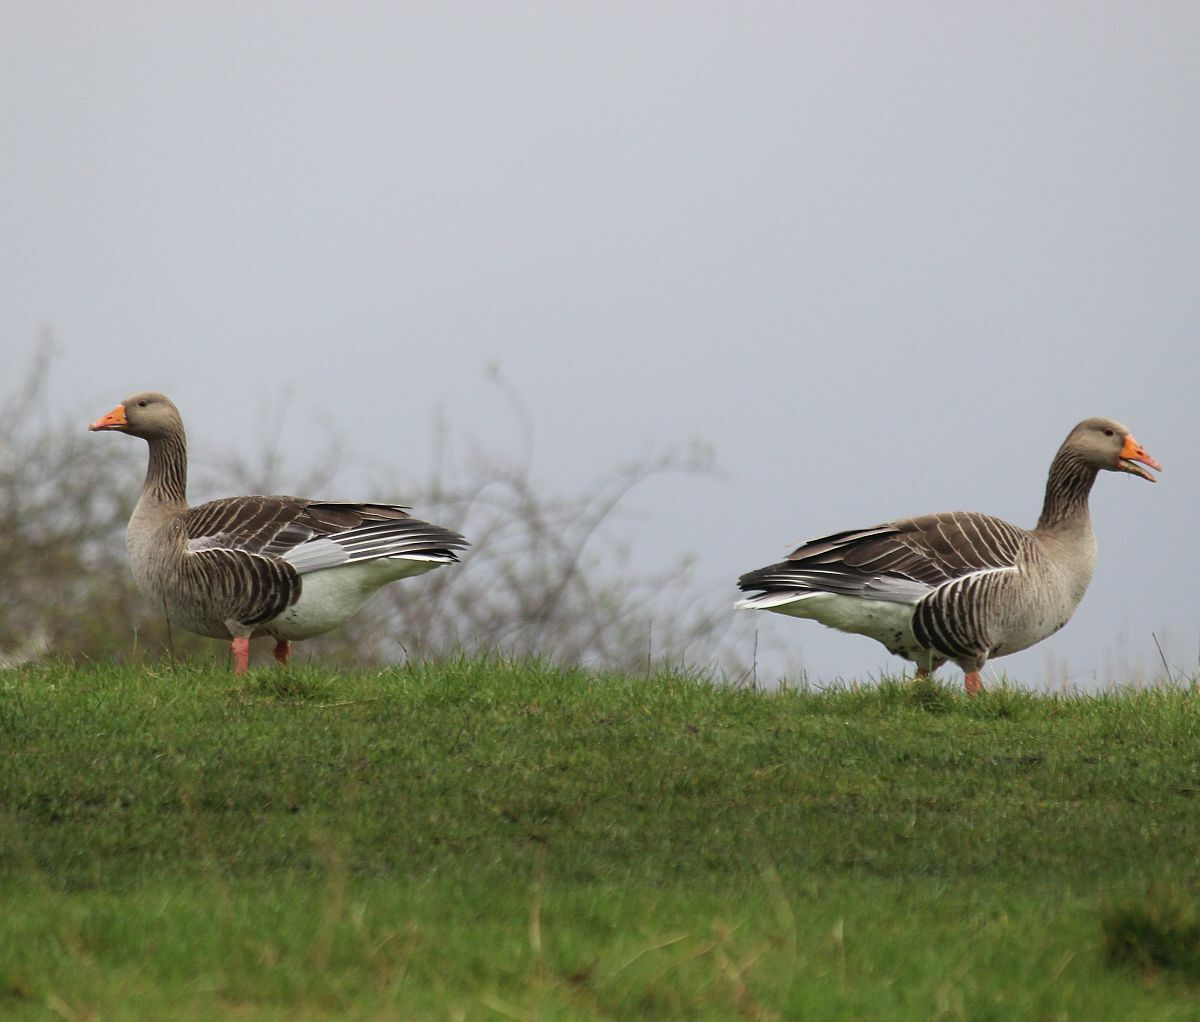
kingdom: Animalia
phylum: Chordata
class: Aves
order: Anseriformes
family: Anatidae
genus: Anser
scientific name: Anser anser
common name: Greylag goose
